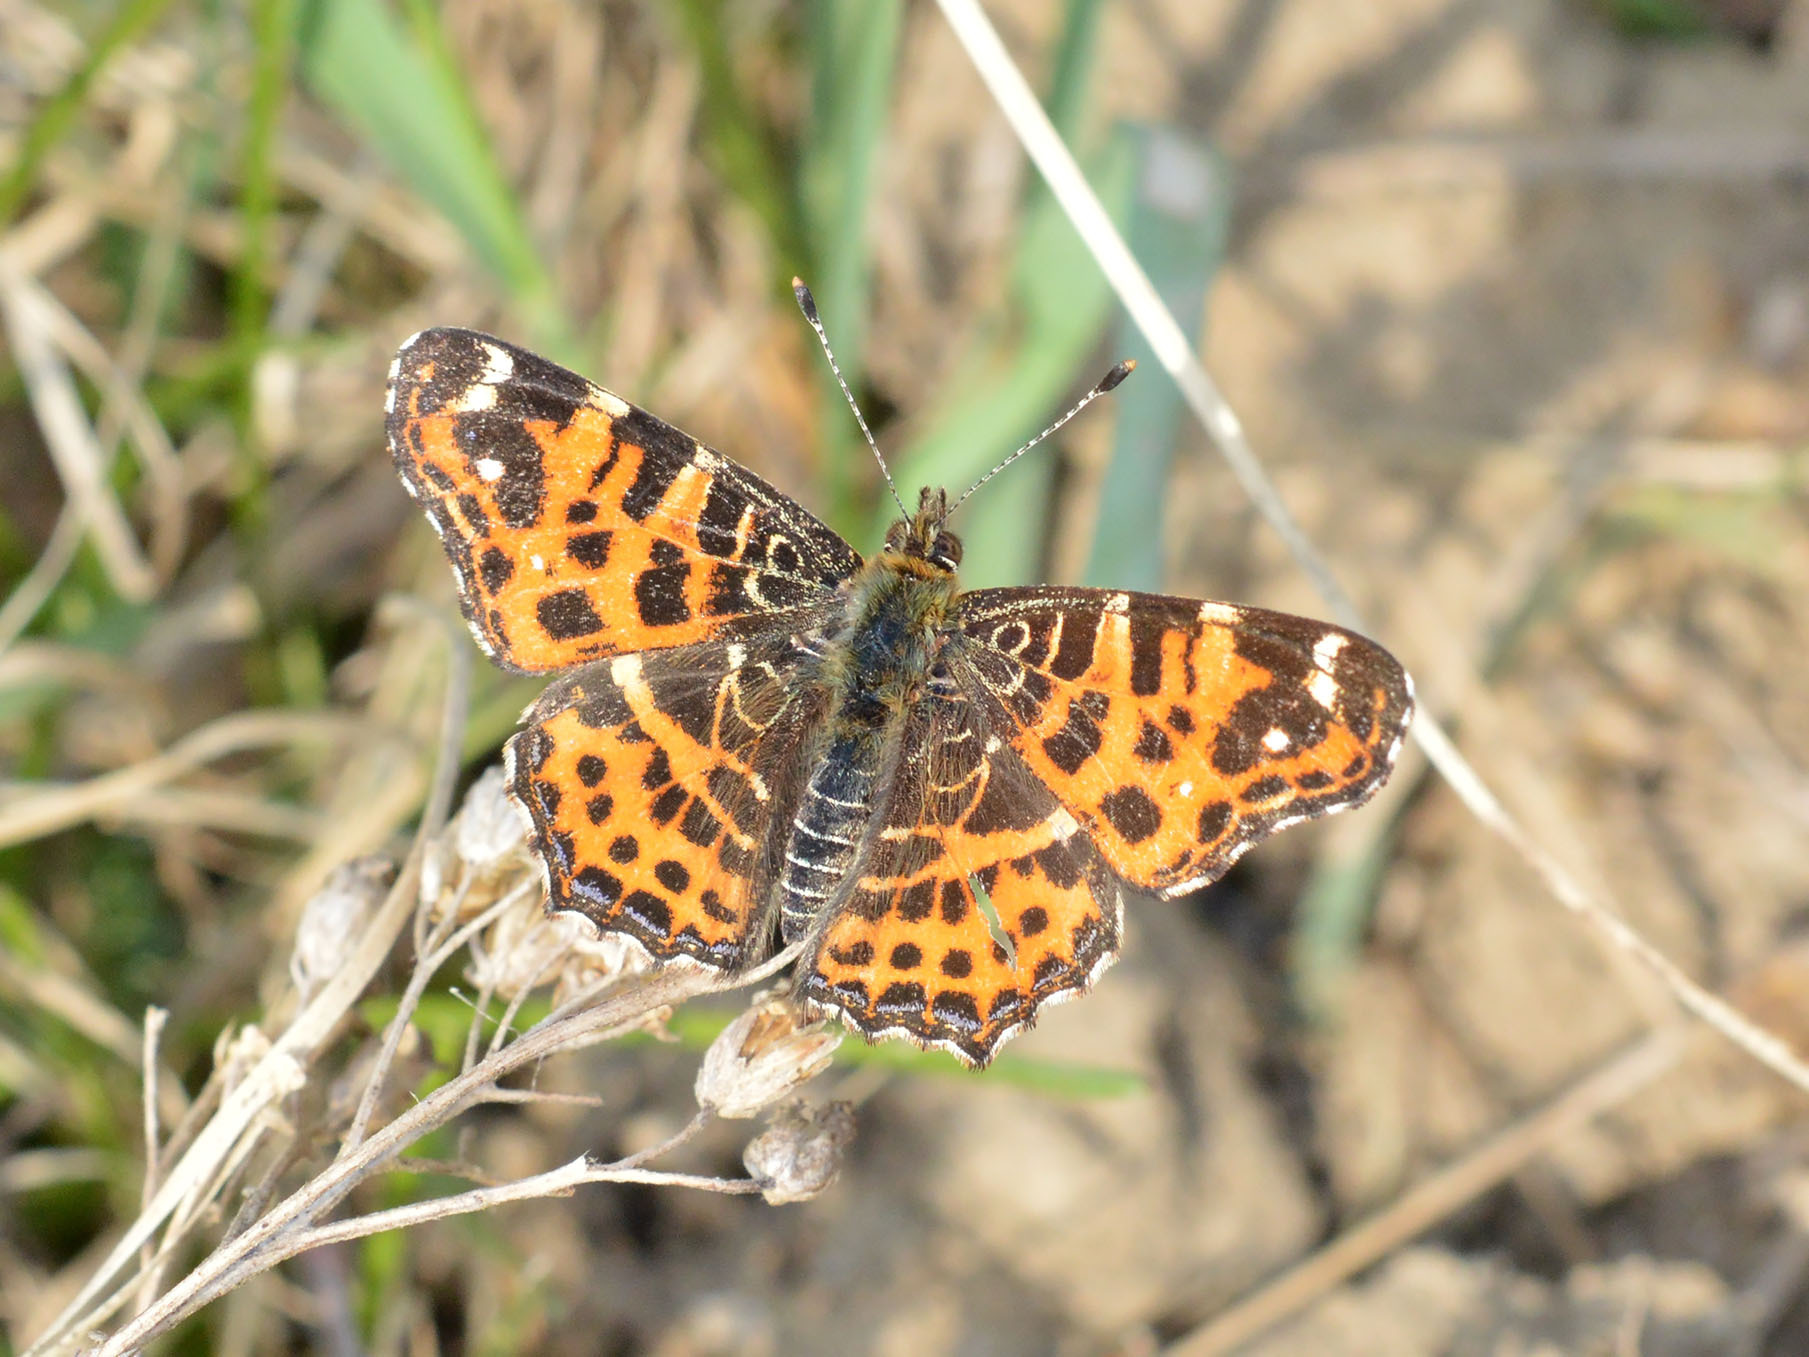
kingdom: Animalia
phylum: Arthropoda
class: Insecta
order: Lepidoptera
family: Nymphalidae
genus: Araschnia
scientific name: Araschnia levana
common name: Map butterfly
